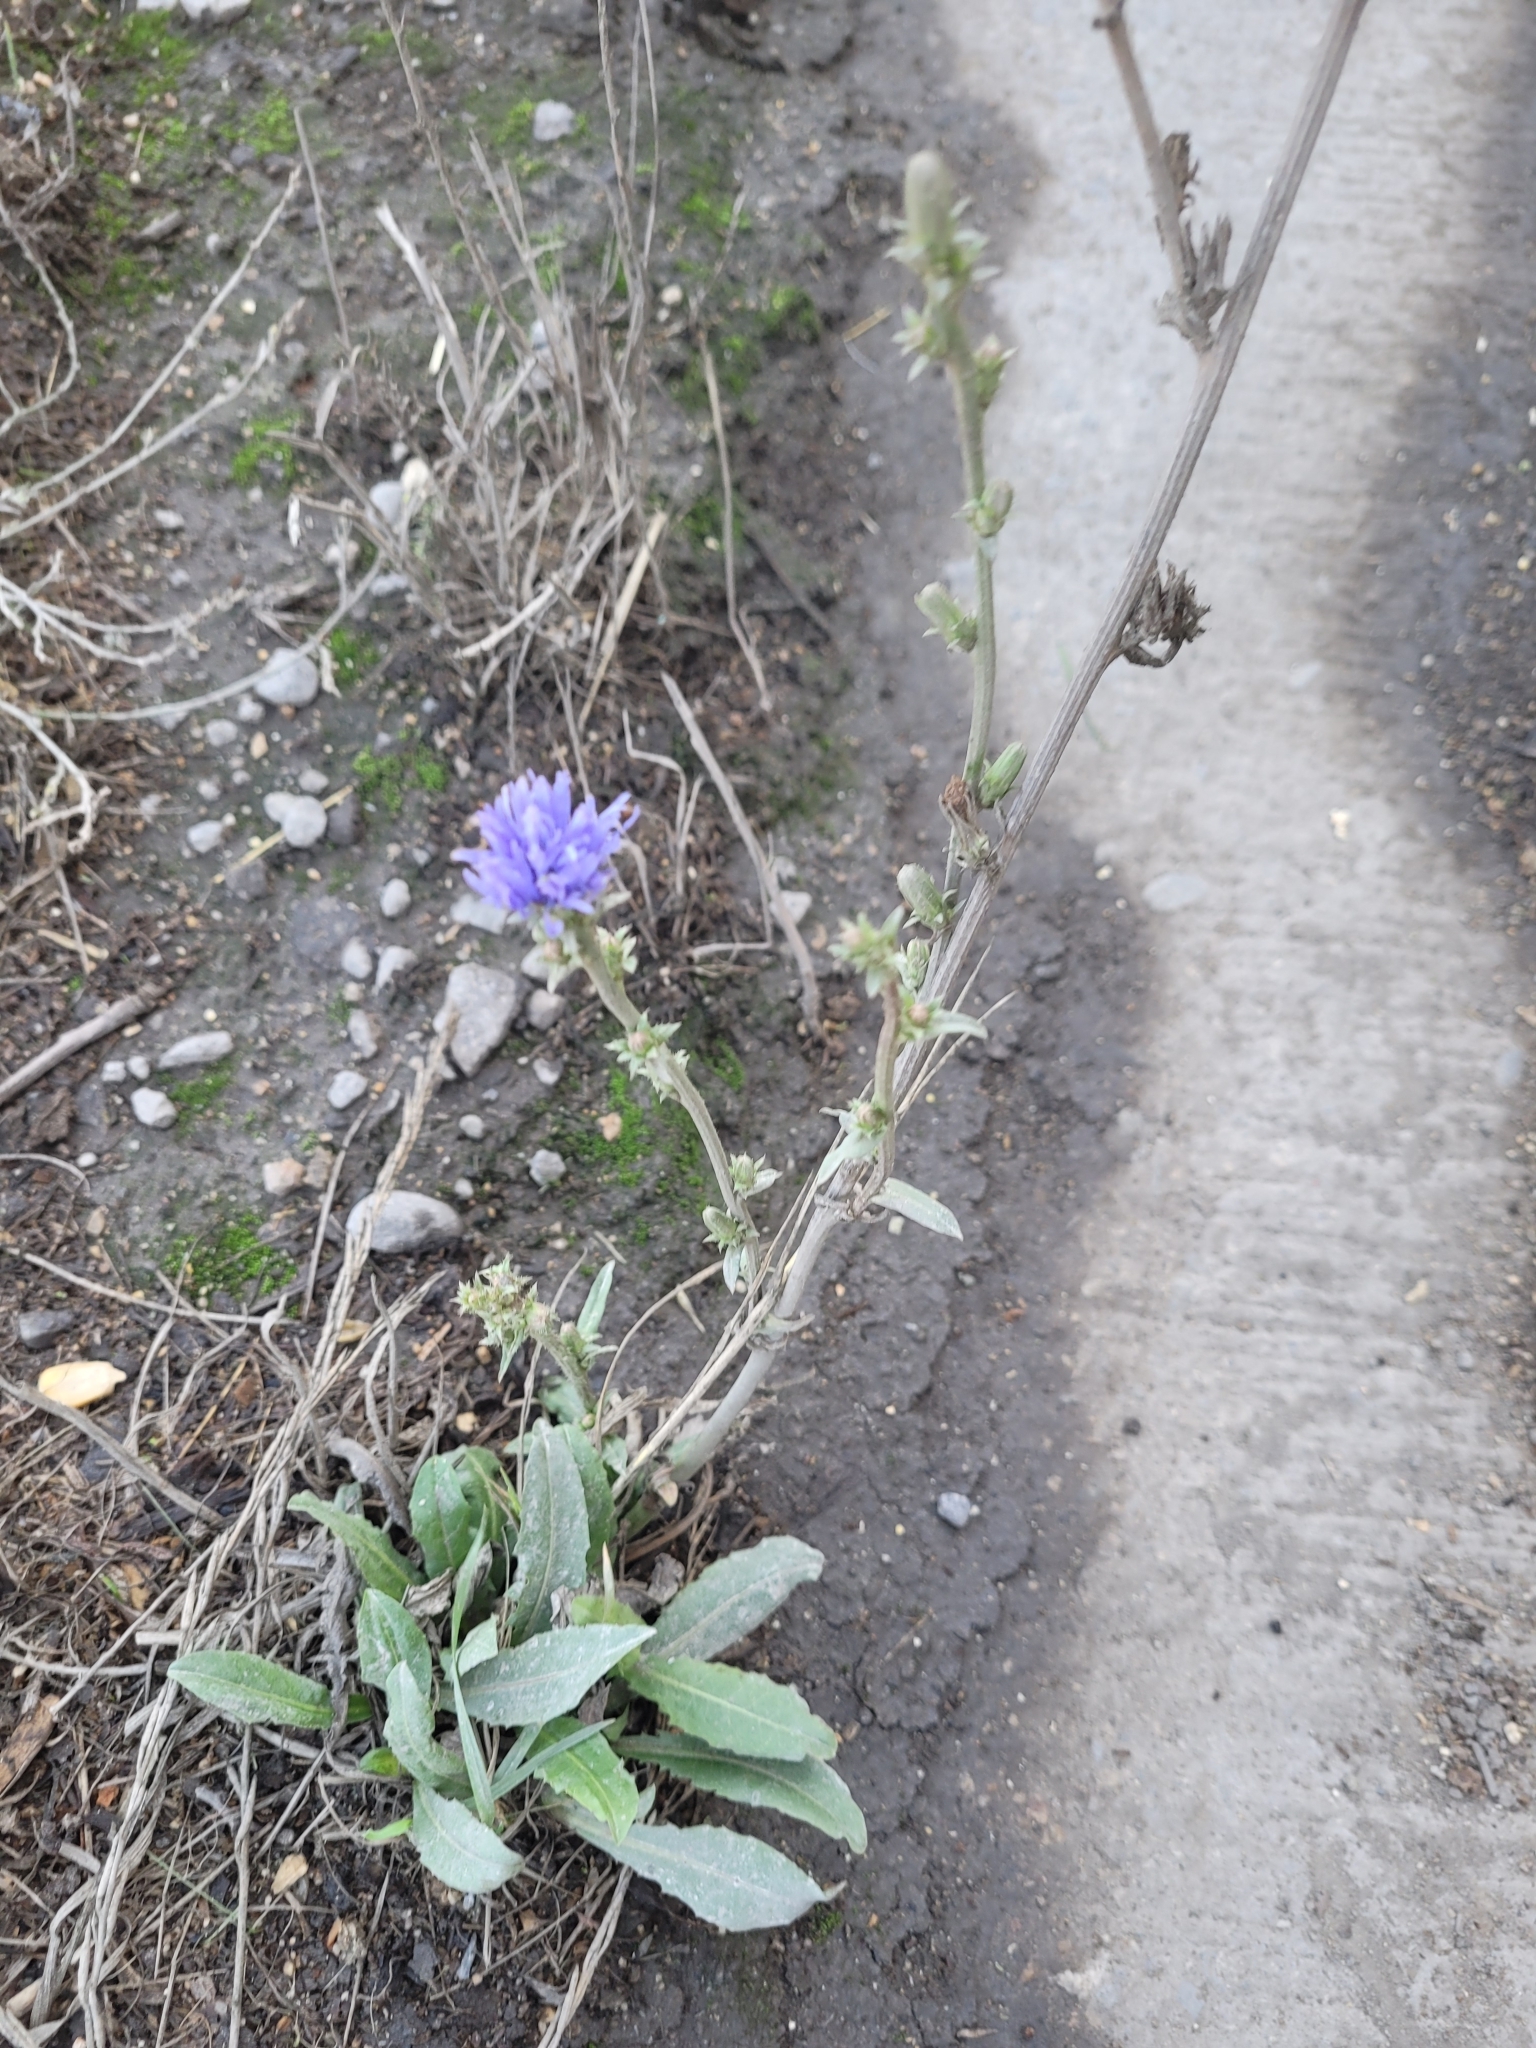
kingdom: Plantae
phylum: Tracheophyta
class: Magnoliopsida
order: Asterales
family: Asteraceae
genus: Cichorium
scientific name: Cichorium intybus
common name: Chicory
